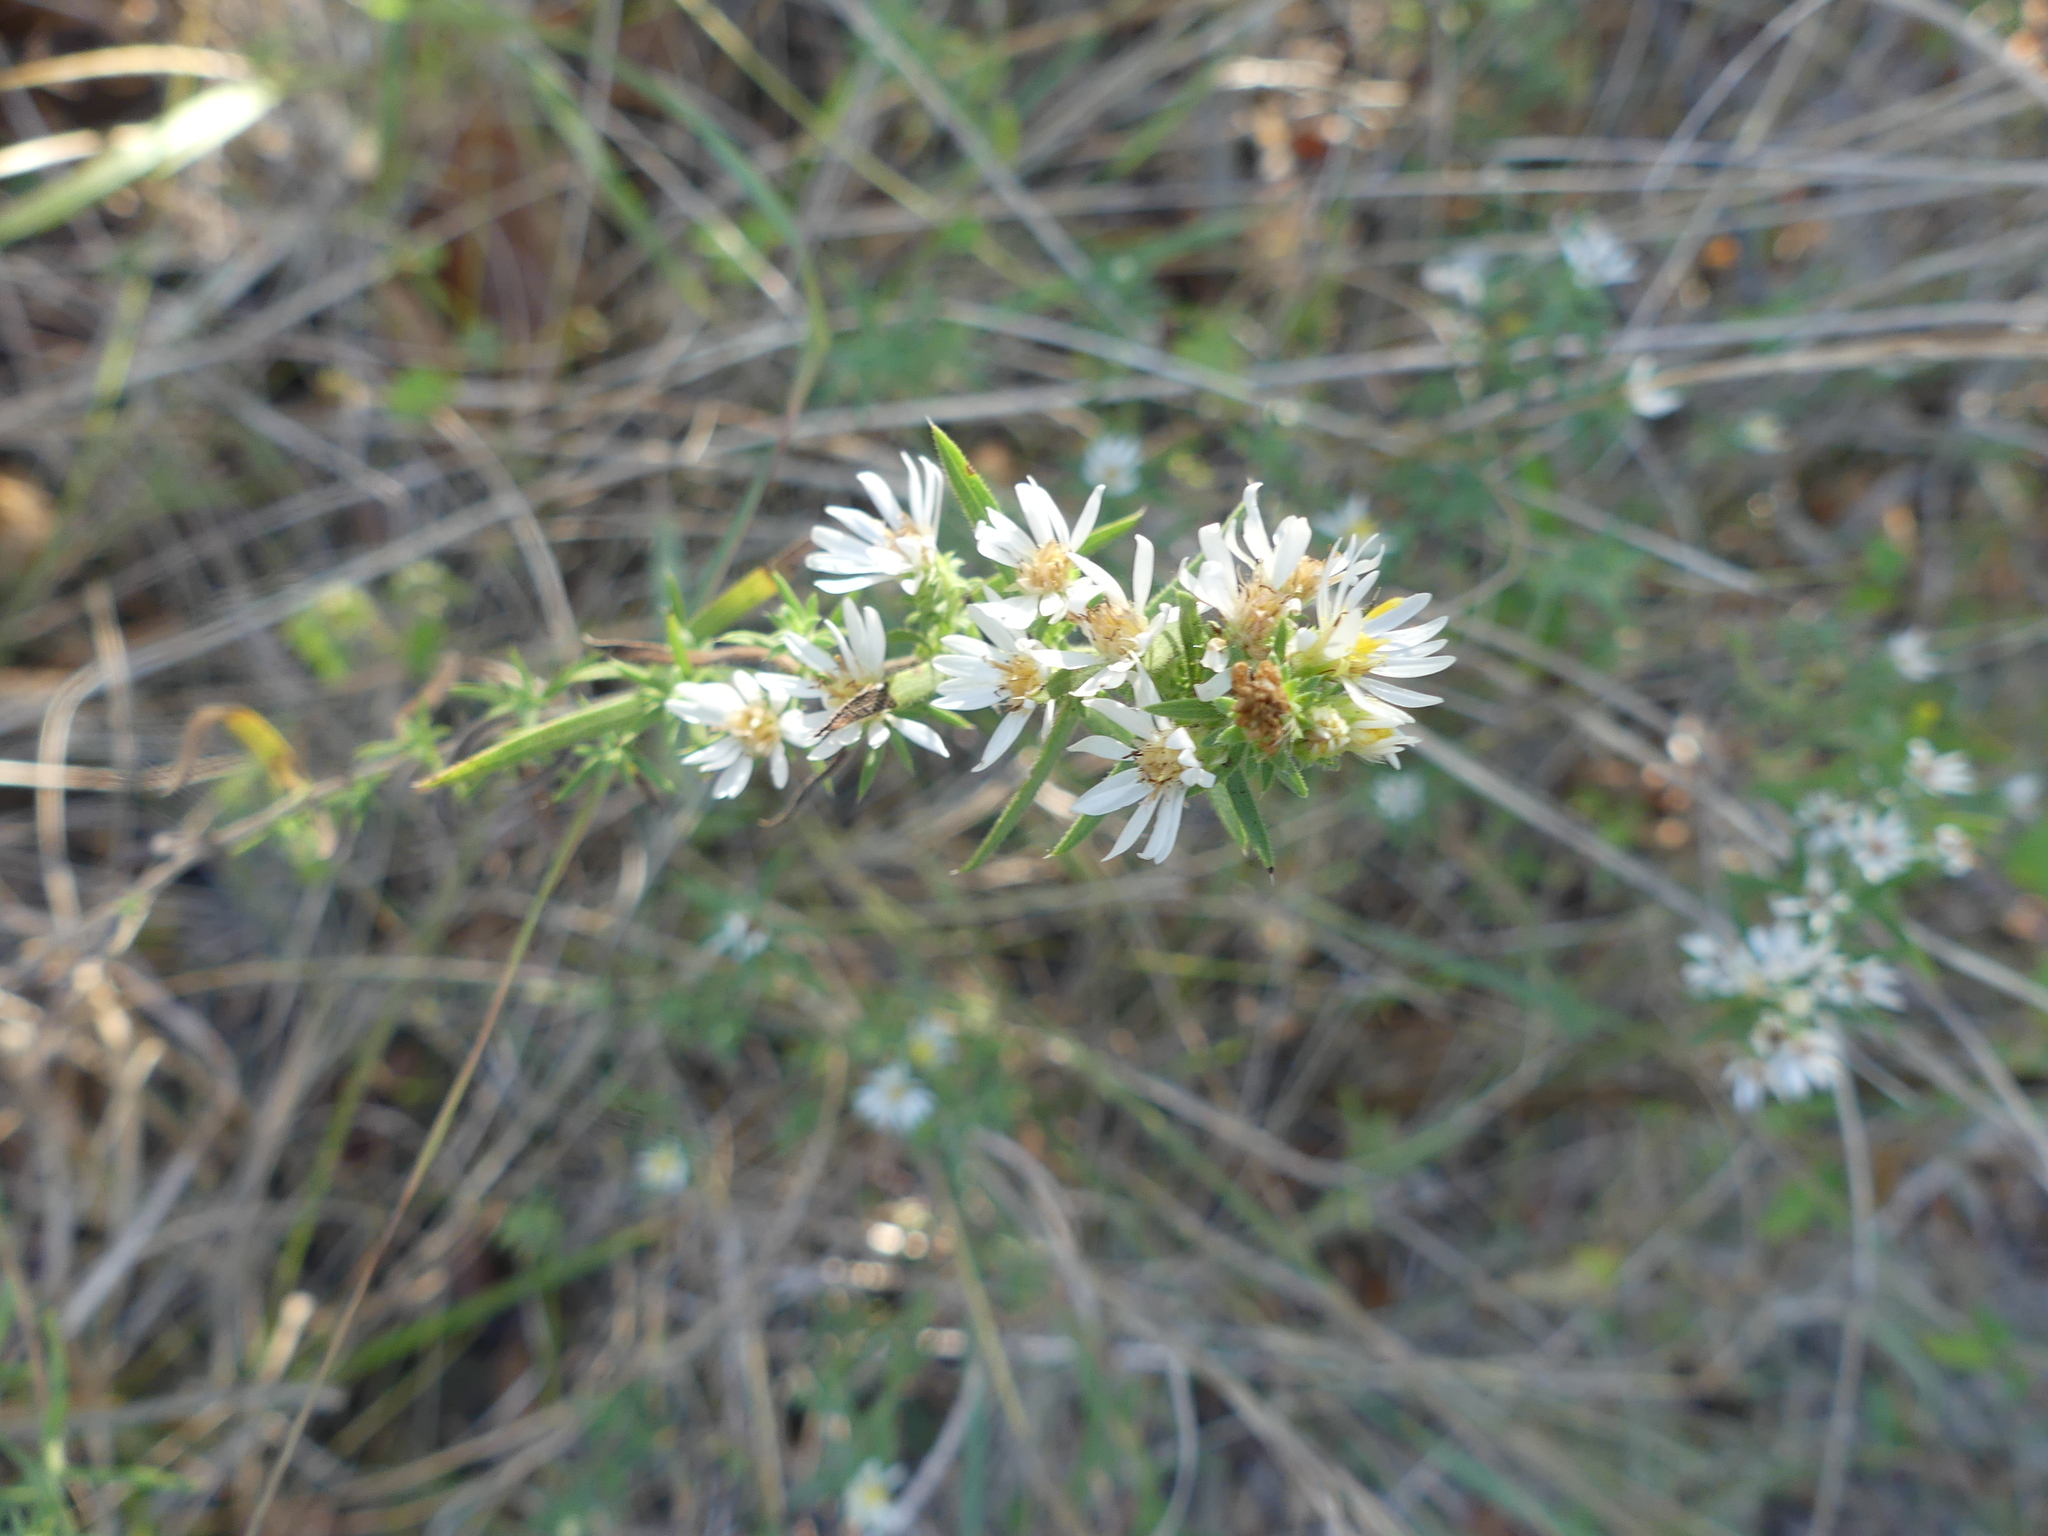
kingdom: Plantae
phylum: Tracheophyta
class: Magnoliopsida
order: Asterales
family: Asteraceae
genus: Symphyotrichum
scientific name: Symphyotrichum ericoides
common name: Heath aster
